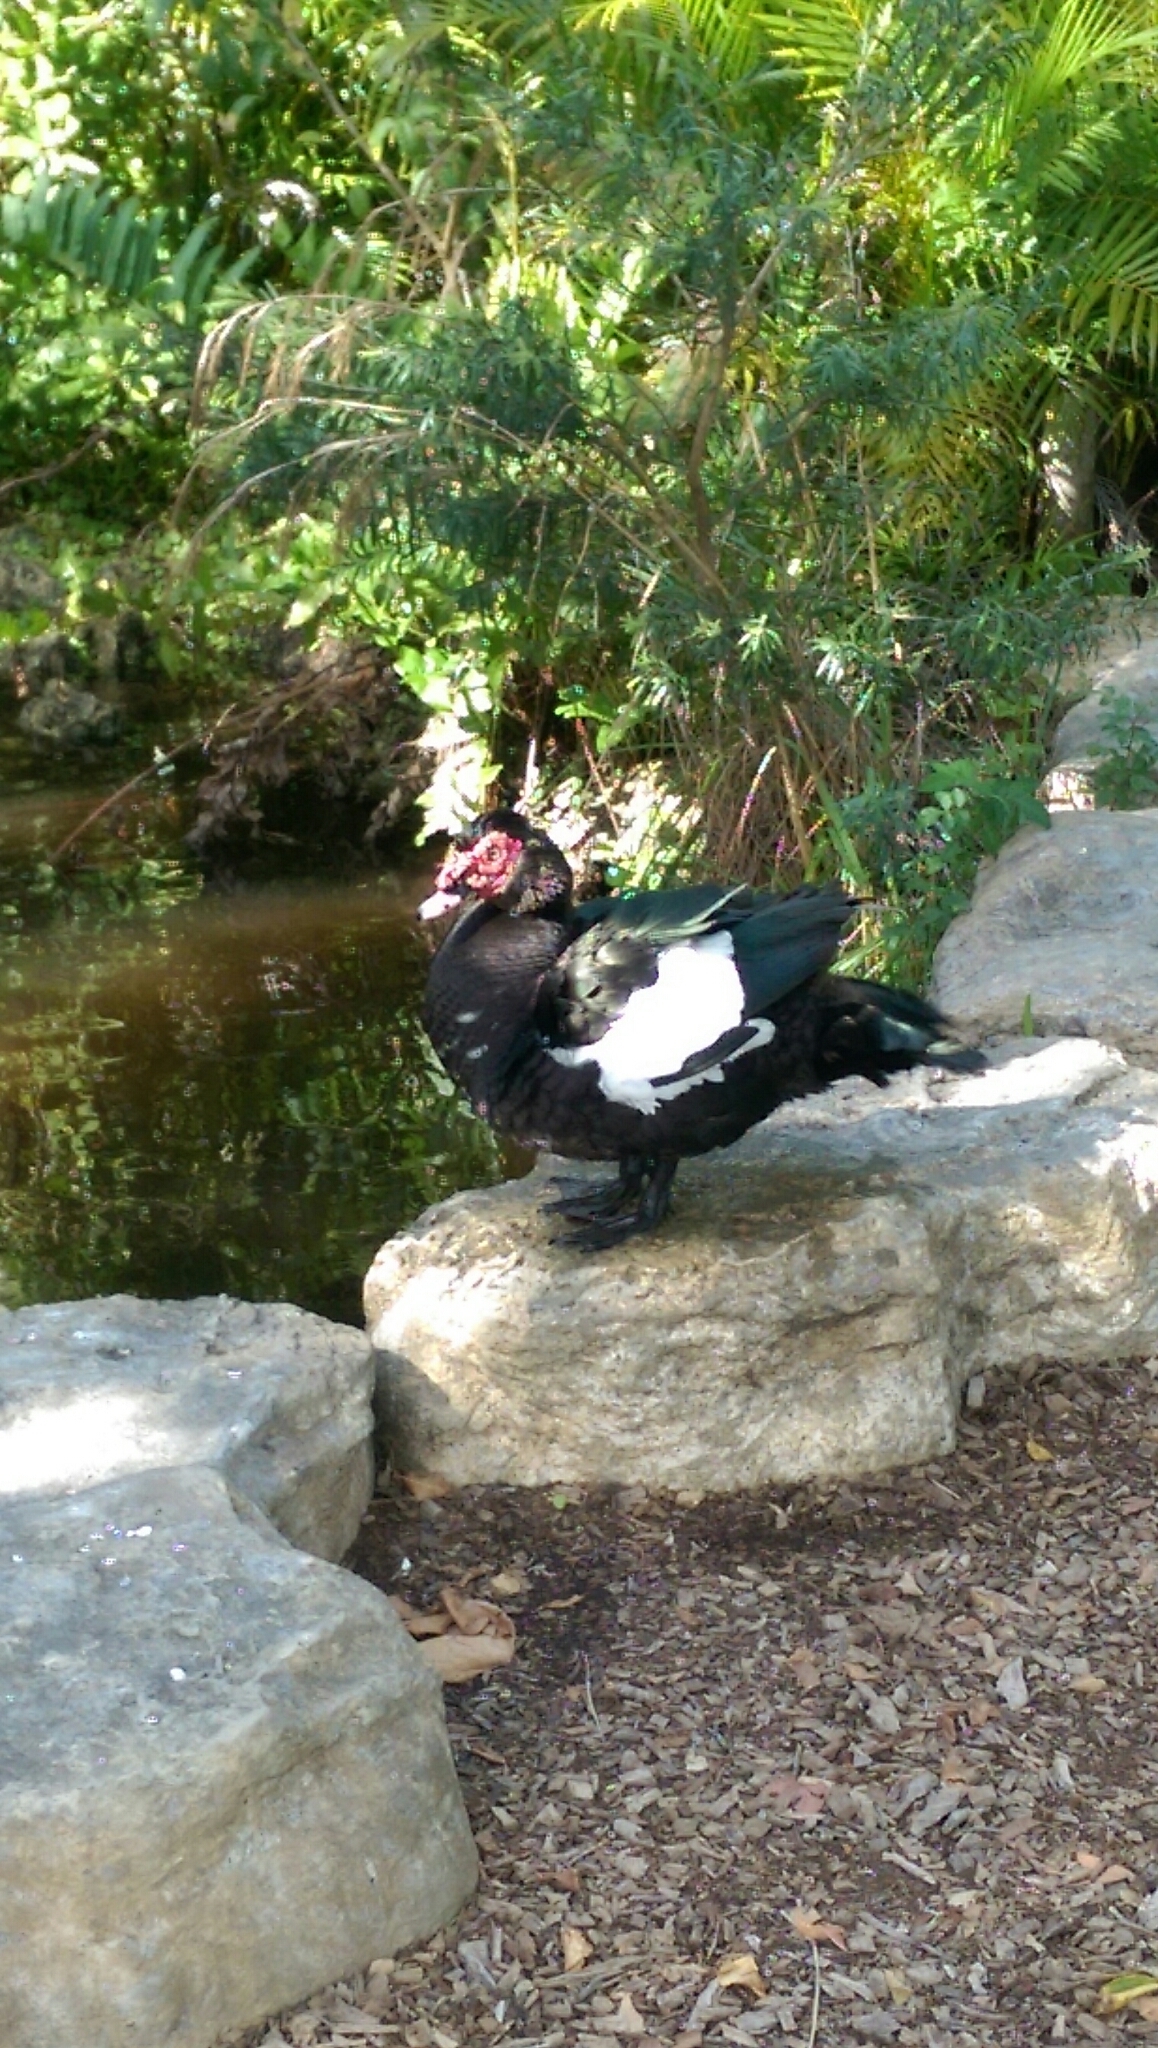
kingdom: Animalia
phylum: Chordata
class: Aves
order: Anseriformes
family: Anatidae
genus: Cairina
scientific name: Cairina moschata
